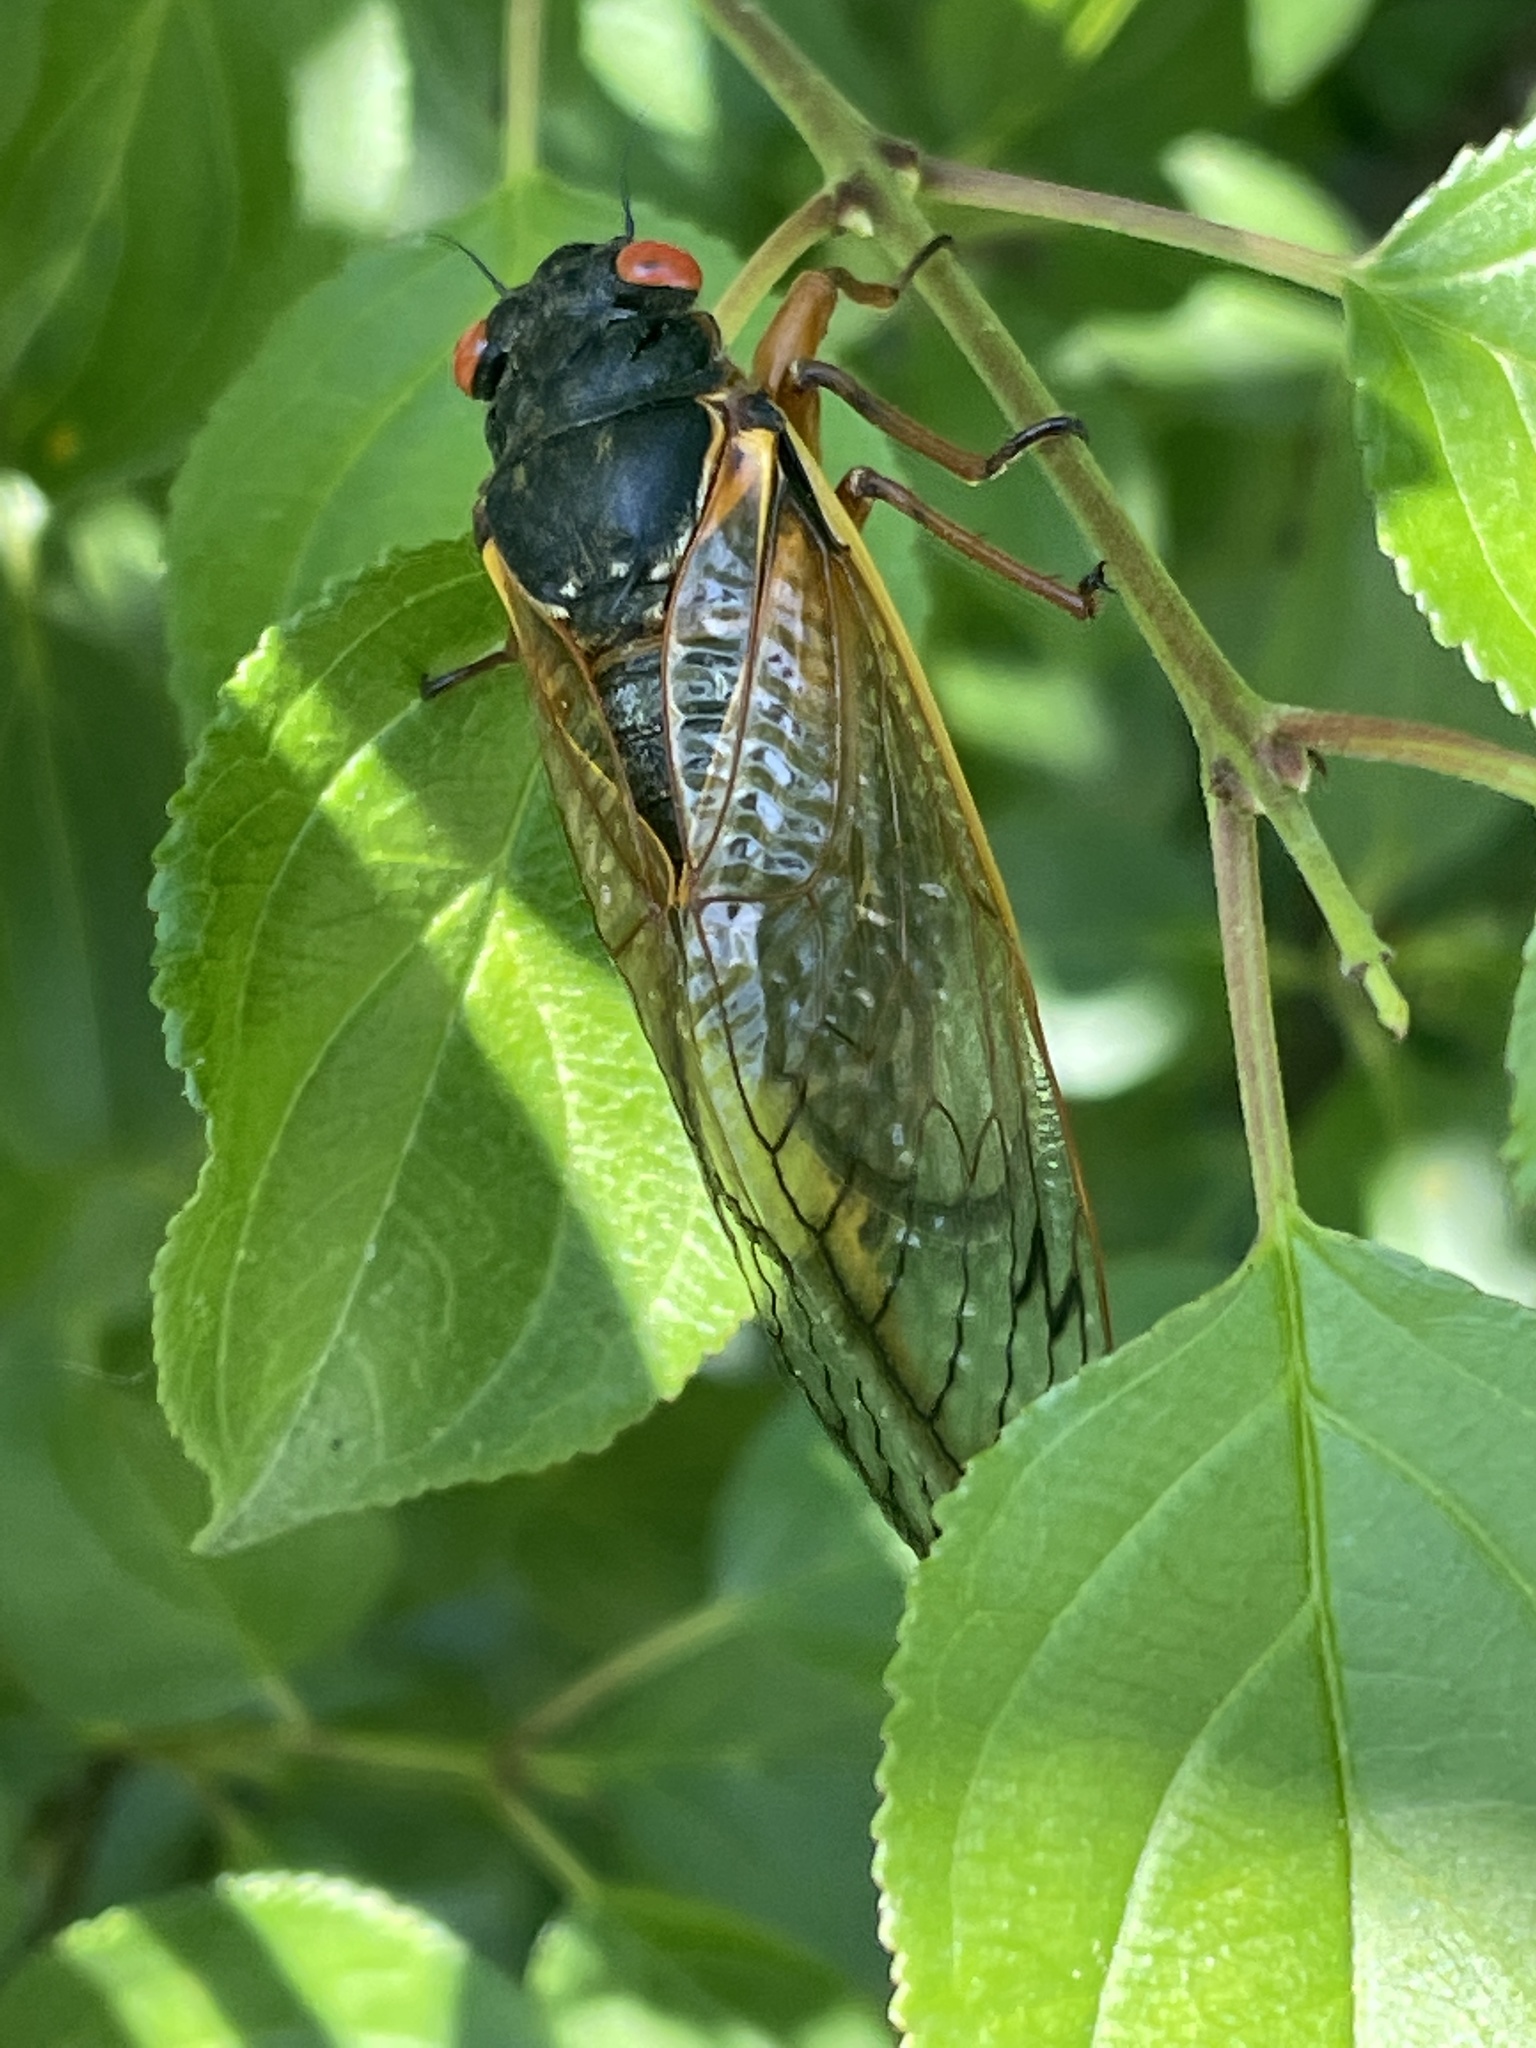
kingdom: Animalia
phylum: Arthropoda
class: Insecta
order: Hemiptera
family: Cicadidae
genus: Magicicada
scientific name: Magicicada septendecim
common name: Periodical cicada
